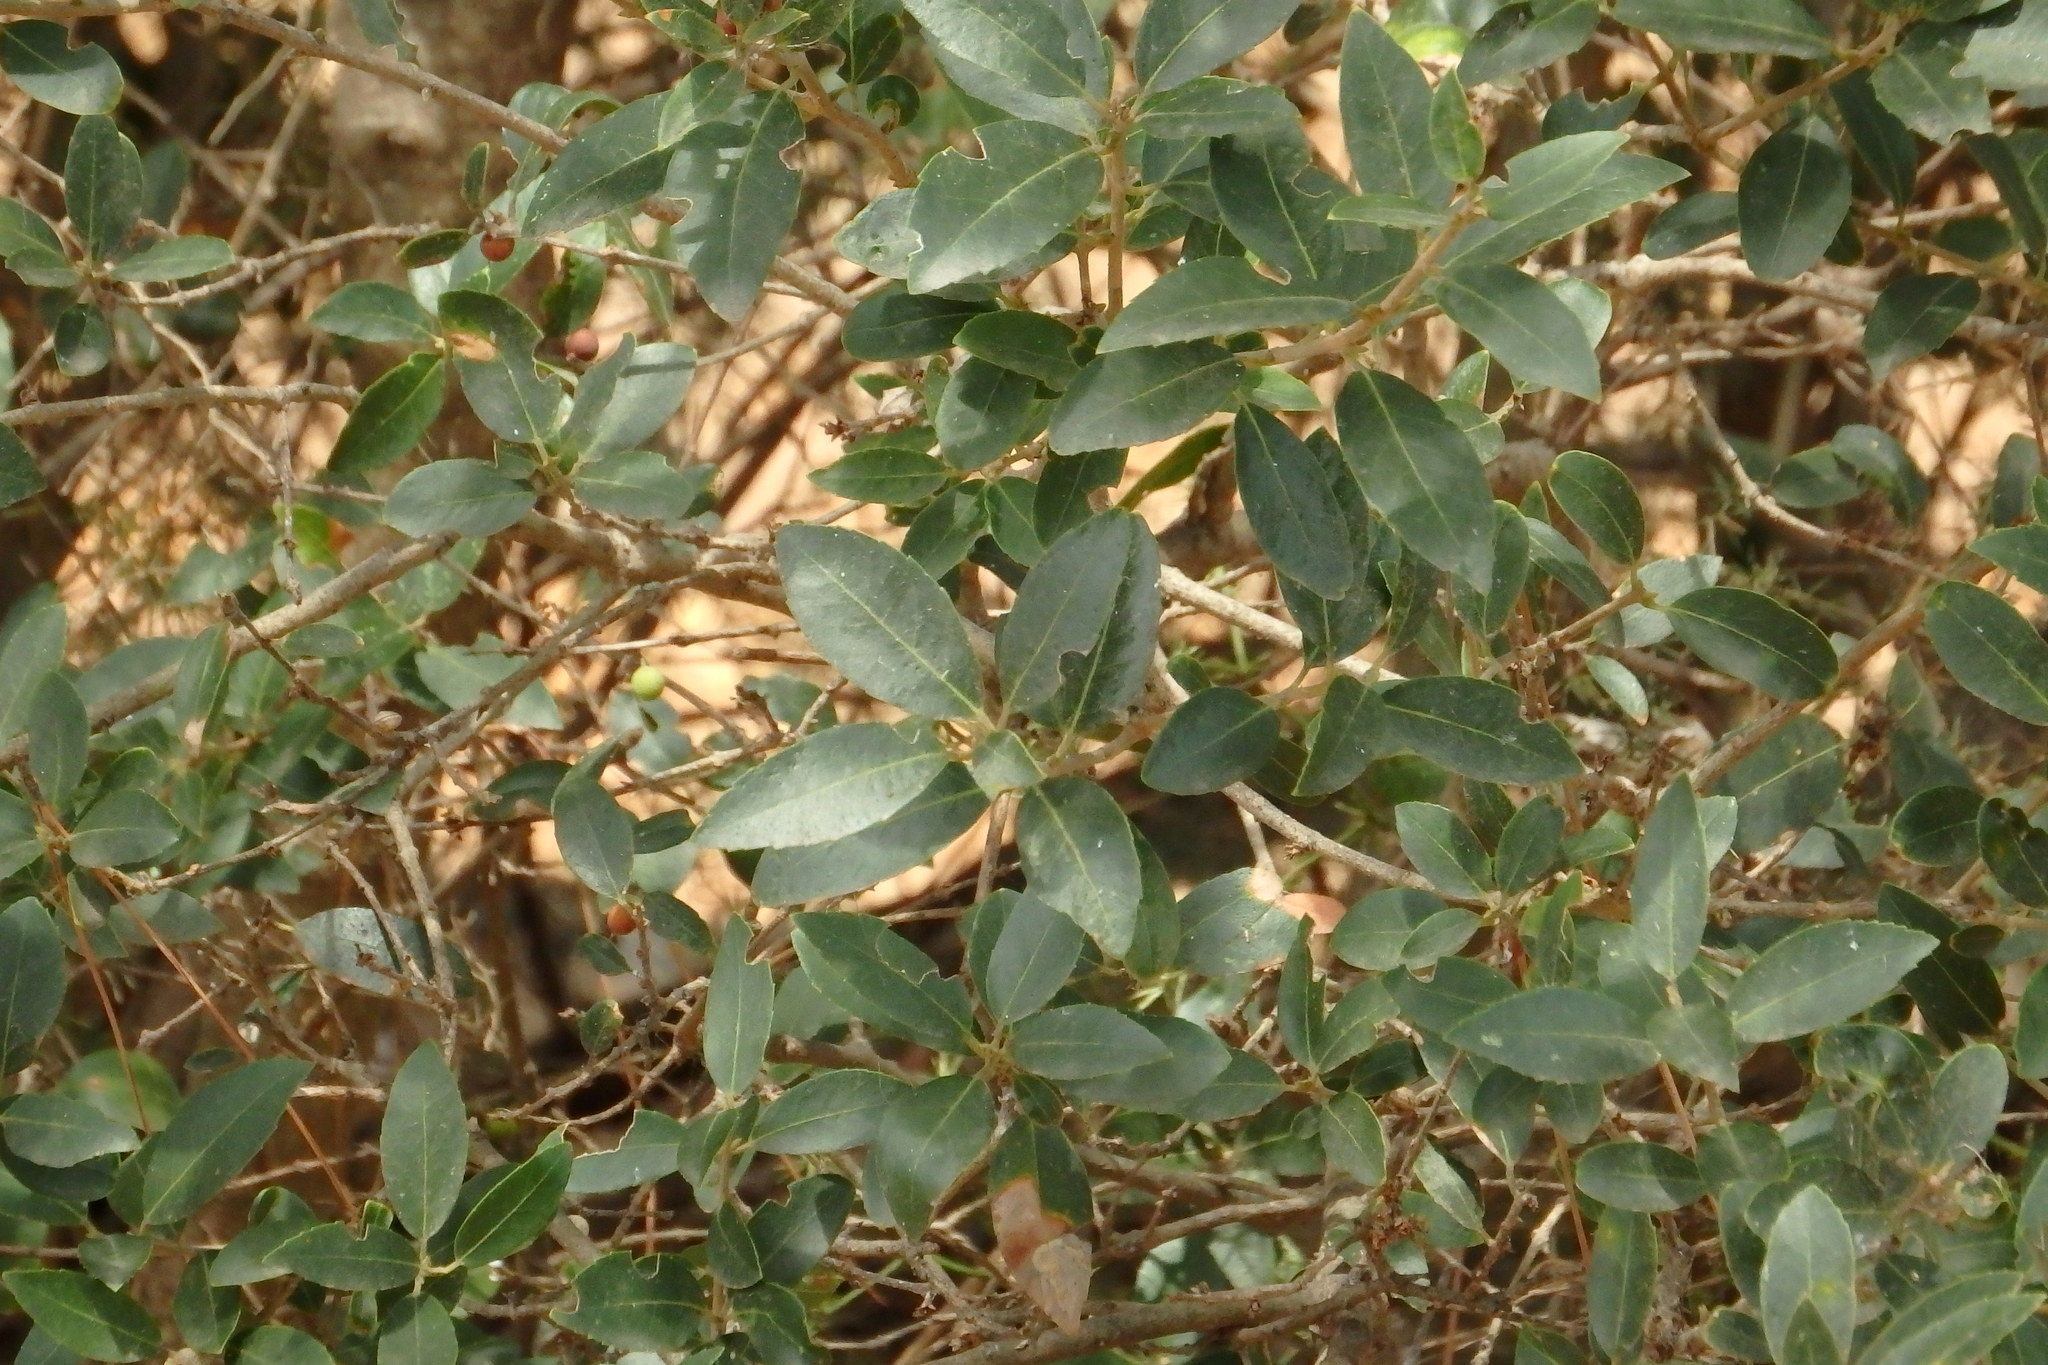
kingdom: Plantae
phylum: Tracheophyta
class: Magnoliopsida
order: Lamiales
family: Oleaceae
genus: Phillyrea
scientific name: Phillyrea latifolia
